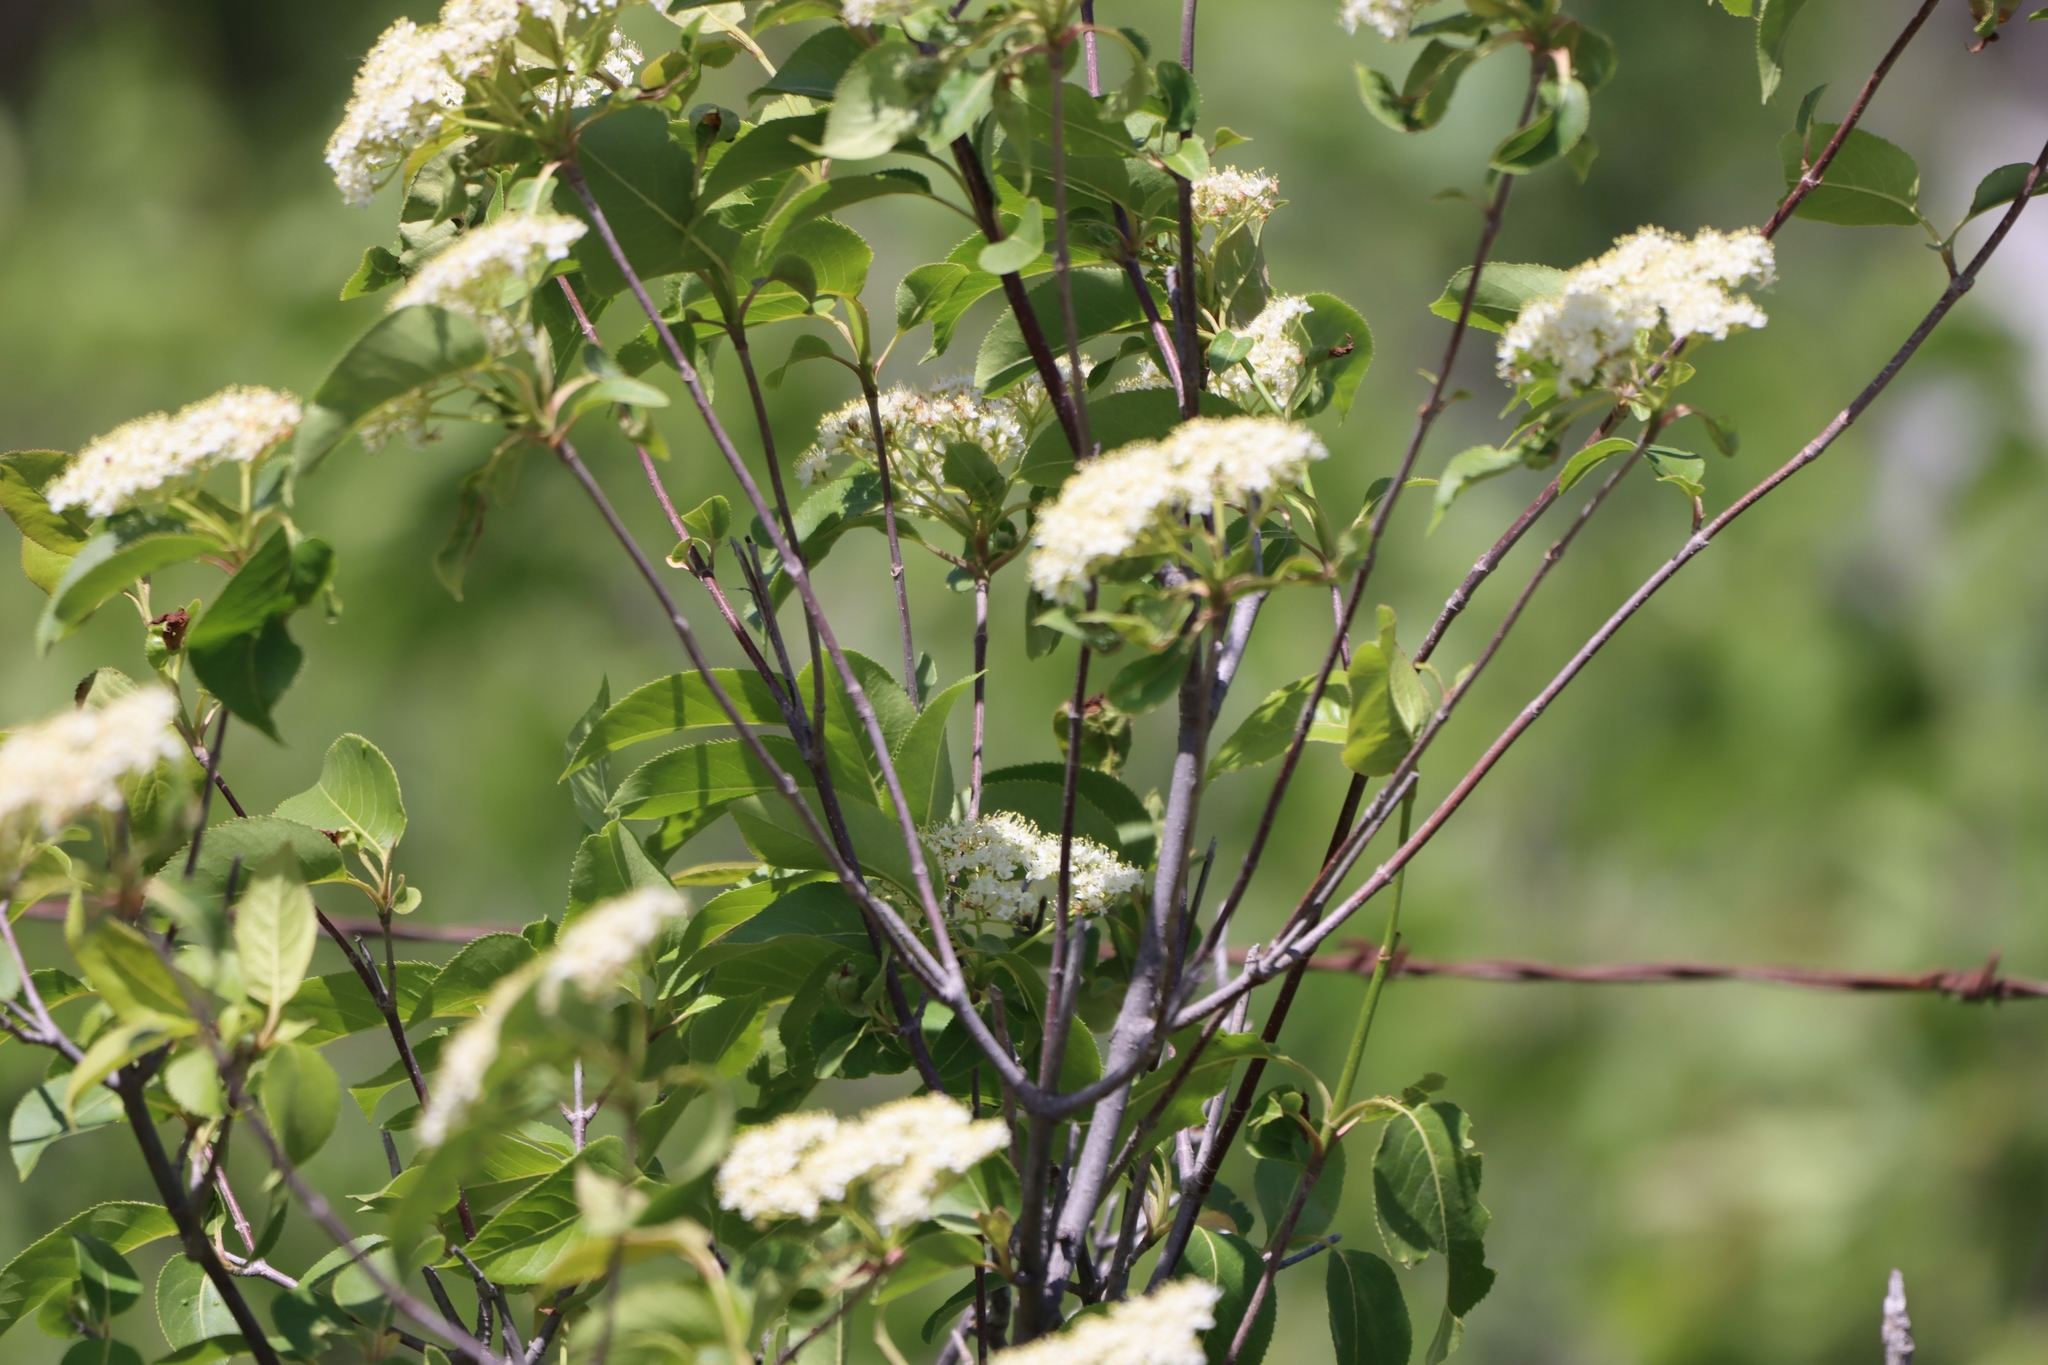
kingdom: Plantae
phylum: Tracheophyta
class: Magnoliopsida
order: Dipsacales
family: Viburnaceae
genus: Viburnum
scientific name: Viburnum lentago
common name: Black haw
